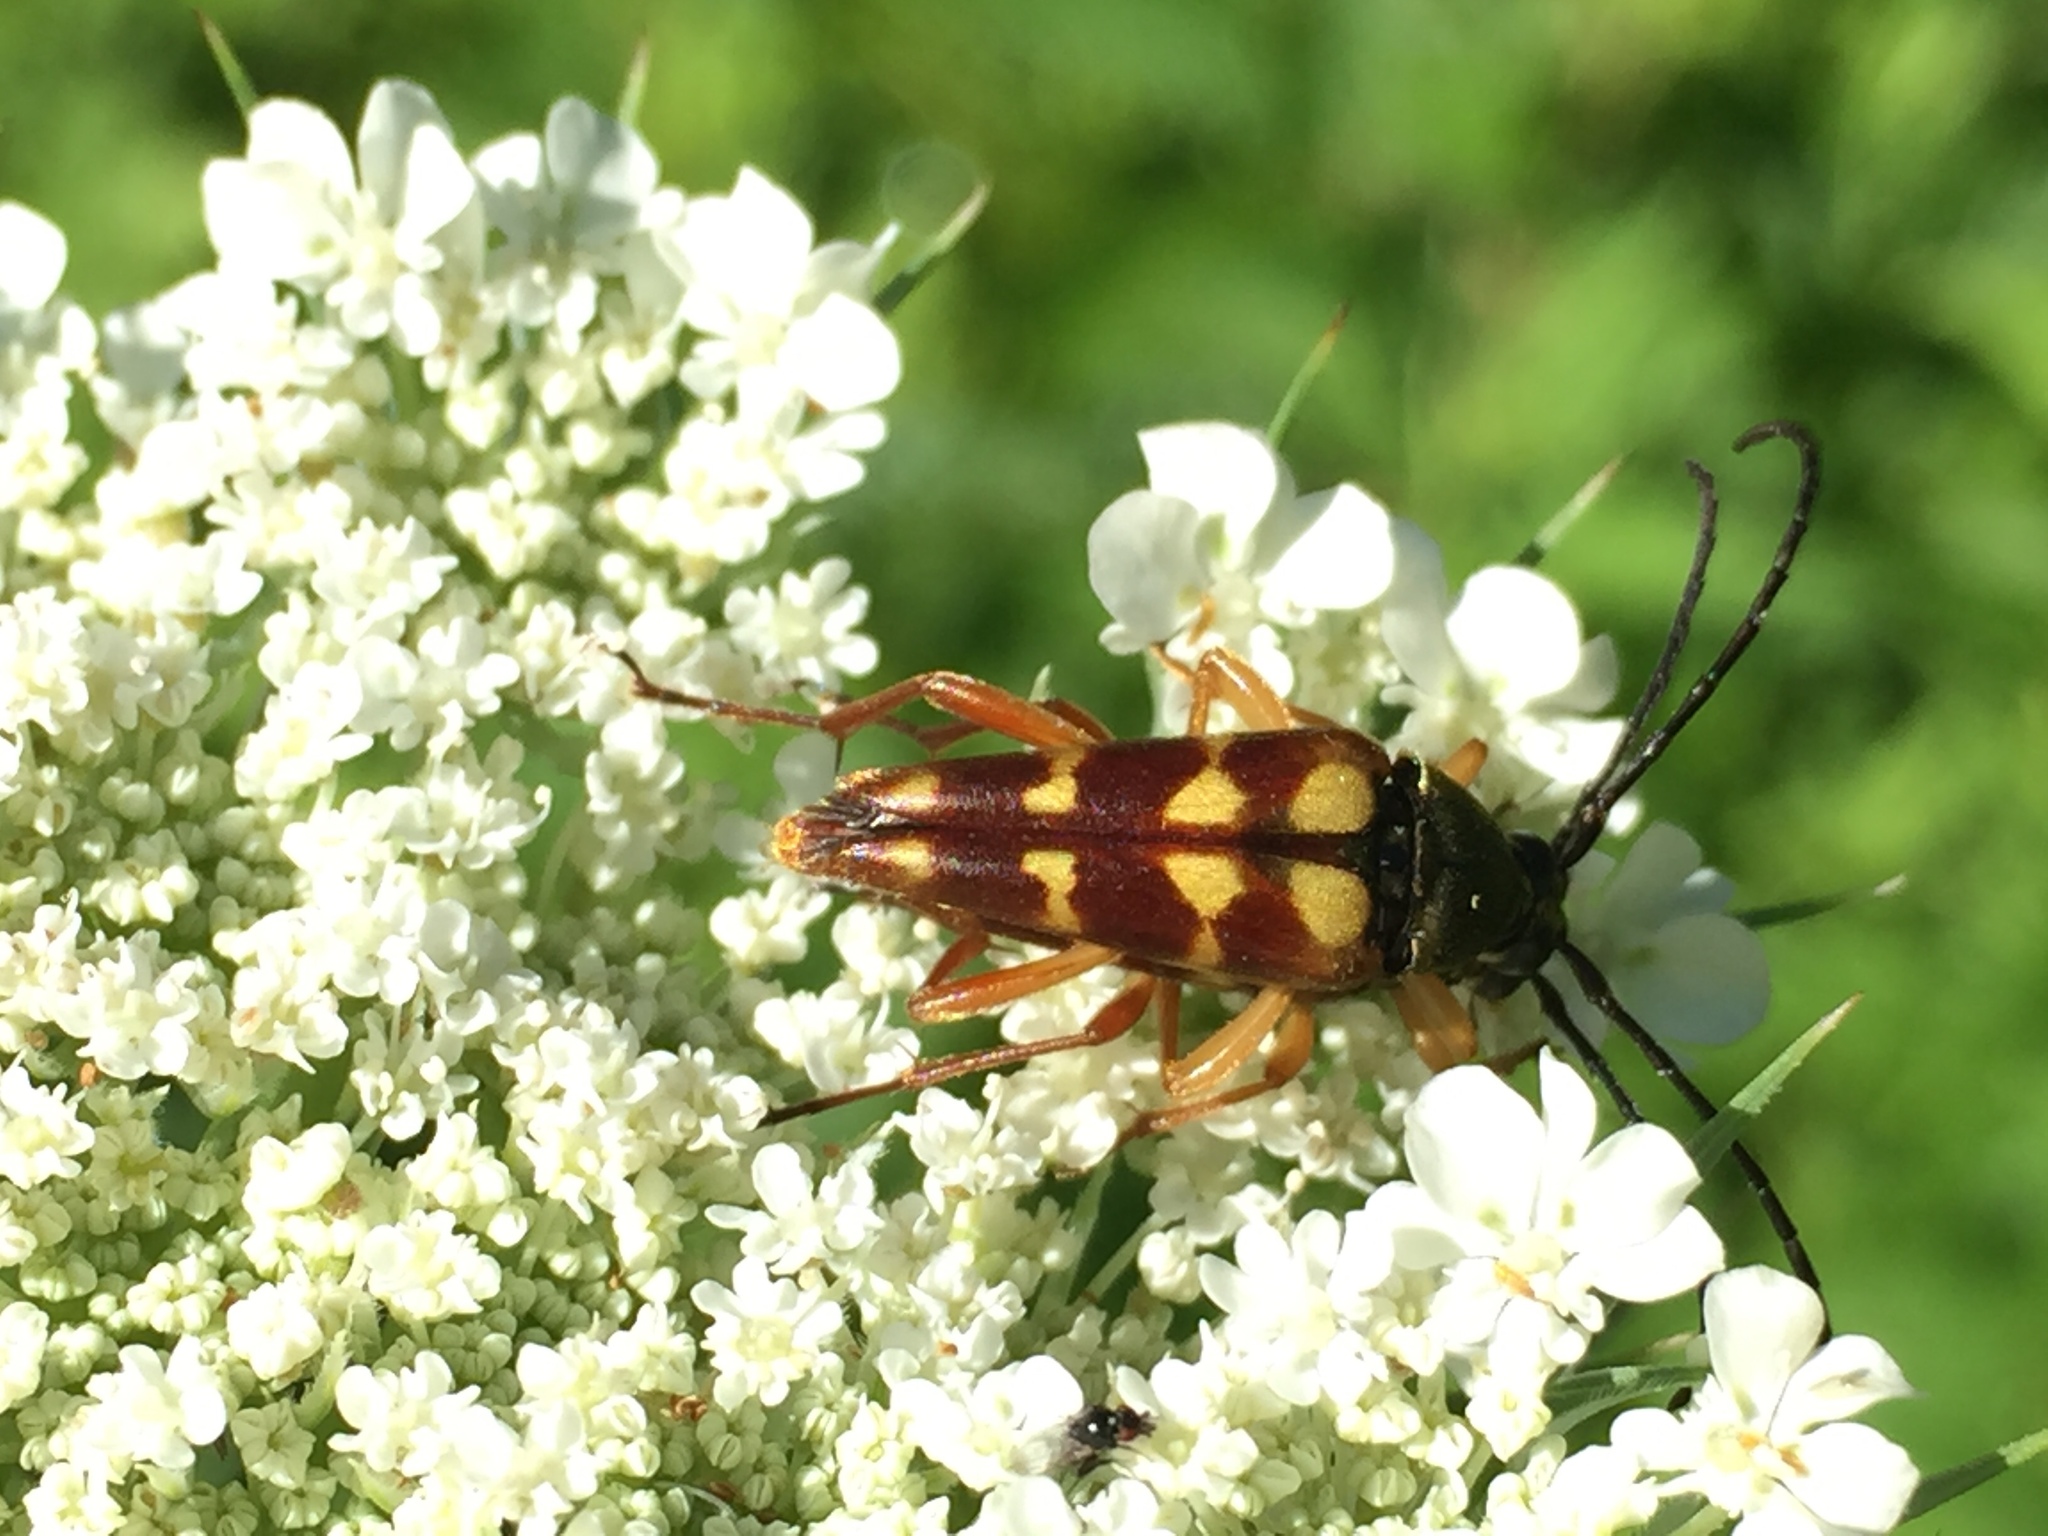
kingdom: Animalia
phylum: Arthropoda
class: Insecta
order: Coleoptera
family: Cerambycidae
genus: Typocerus
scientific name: Typocerus velutinus
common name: Banded longhorn beetle
